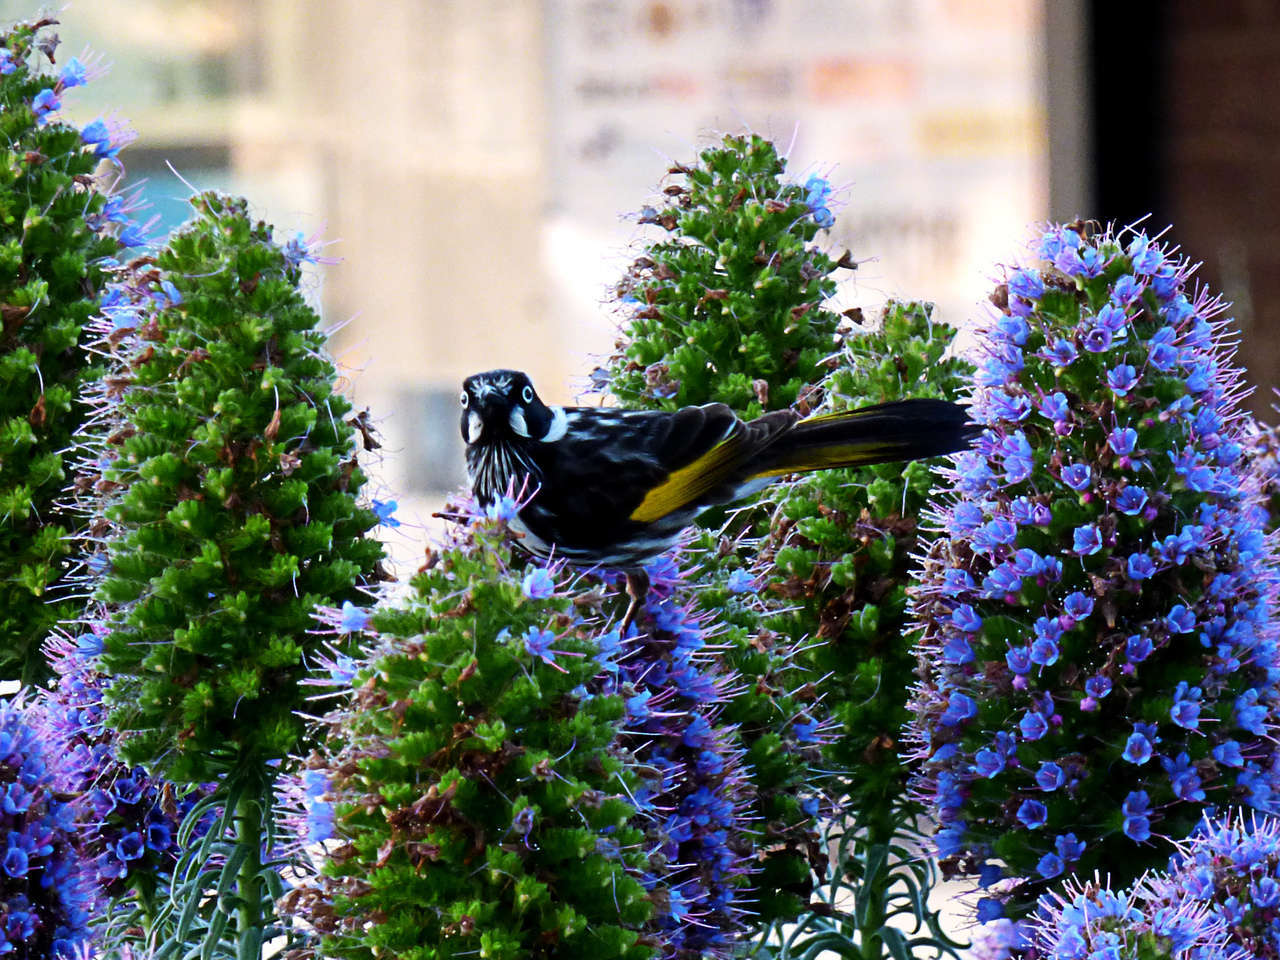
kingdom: Animalia
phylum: Chordata
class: Aves
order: Passeriformes
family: Meliphagidae
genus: Phylidonyris
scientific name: Phylidonyris novaehollandiae
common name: New holland honeyeater
